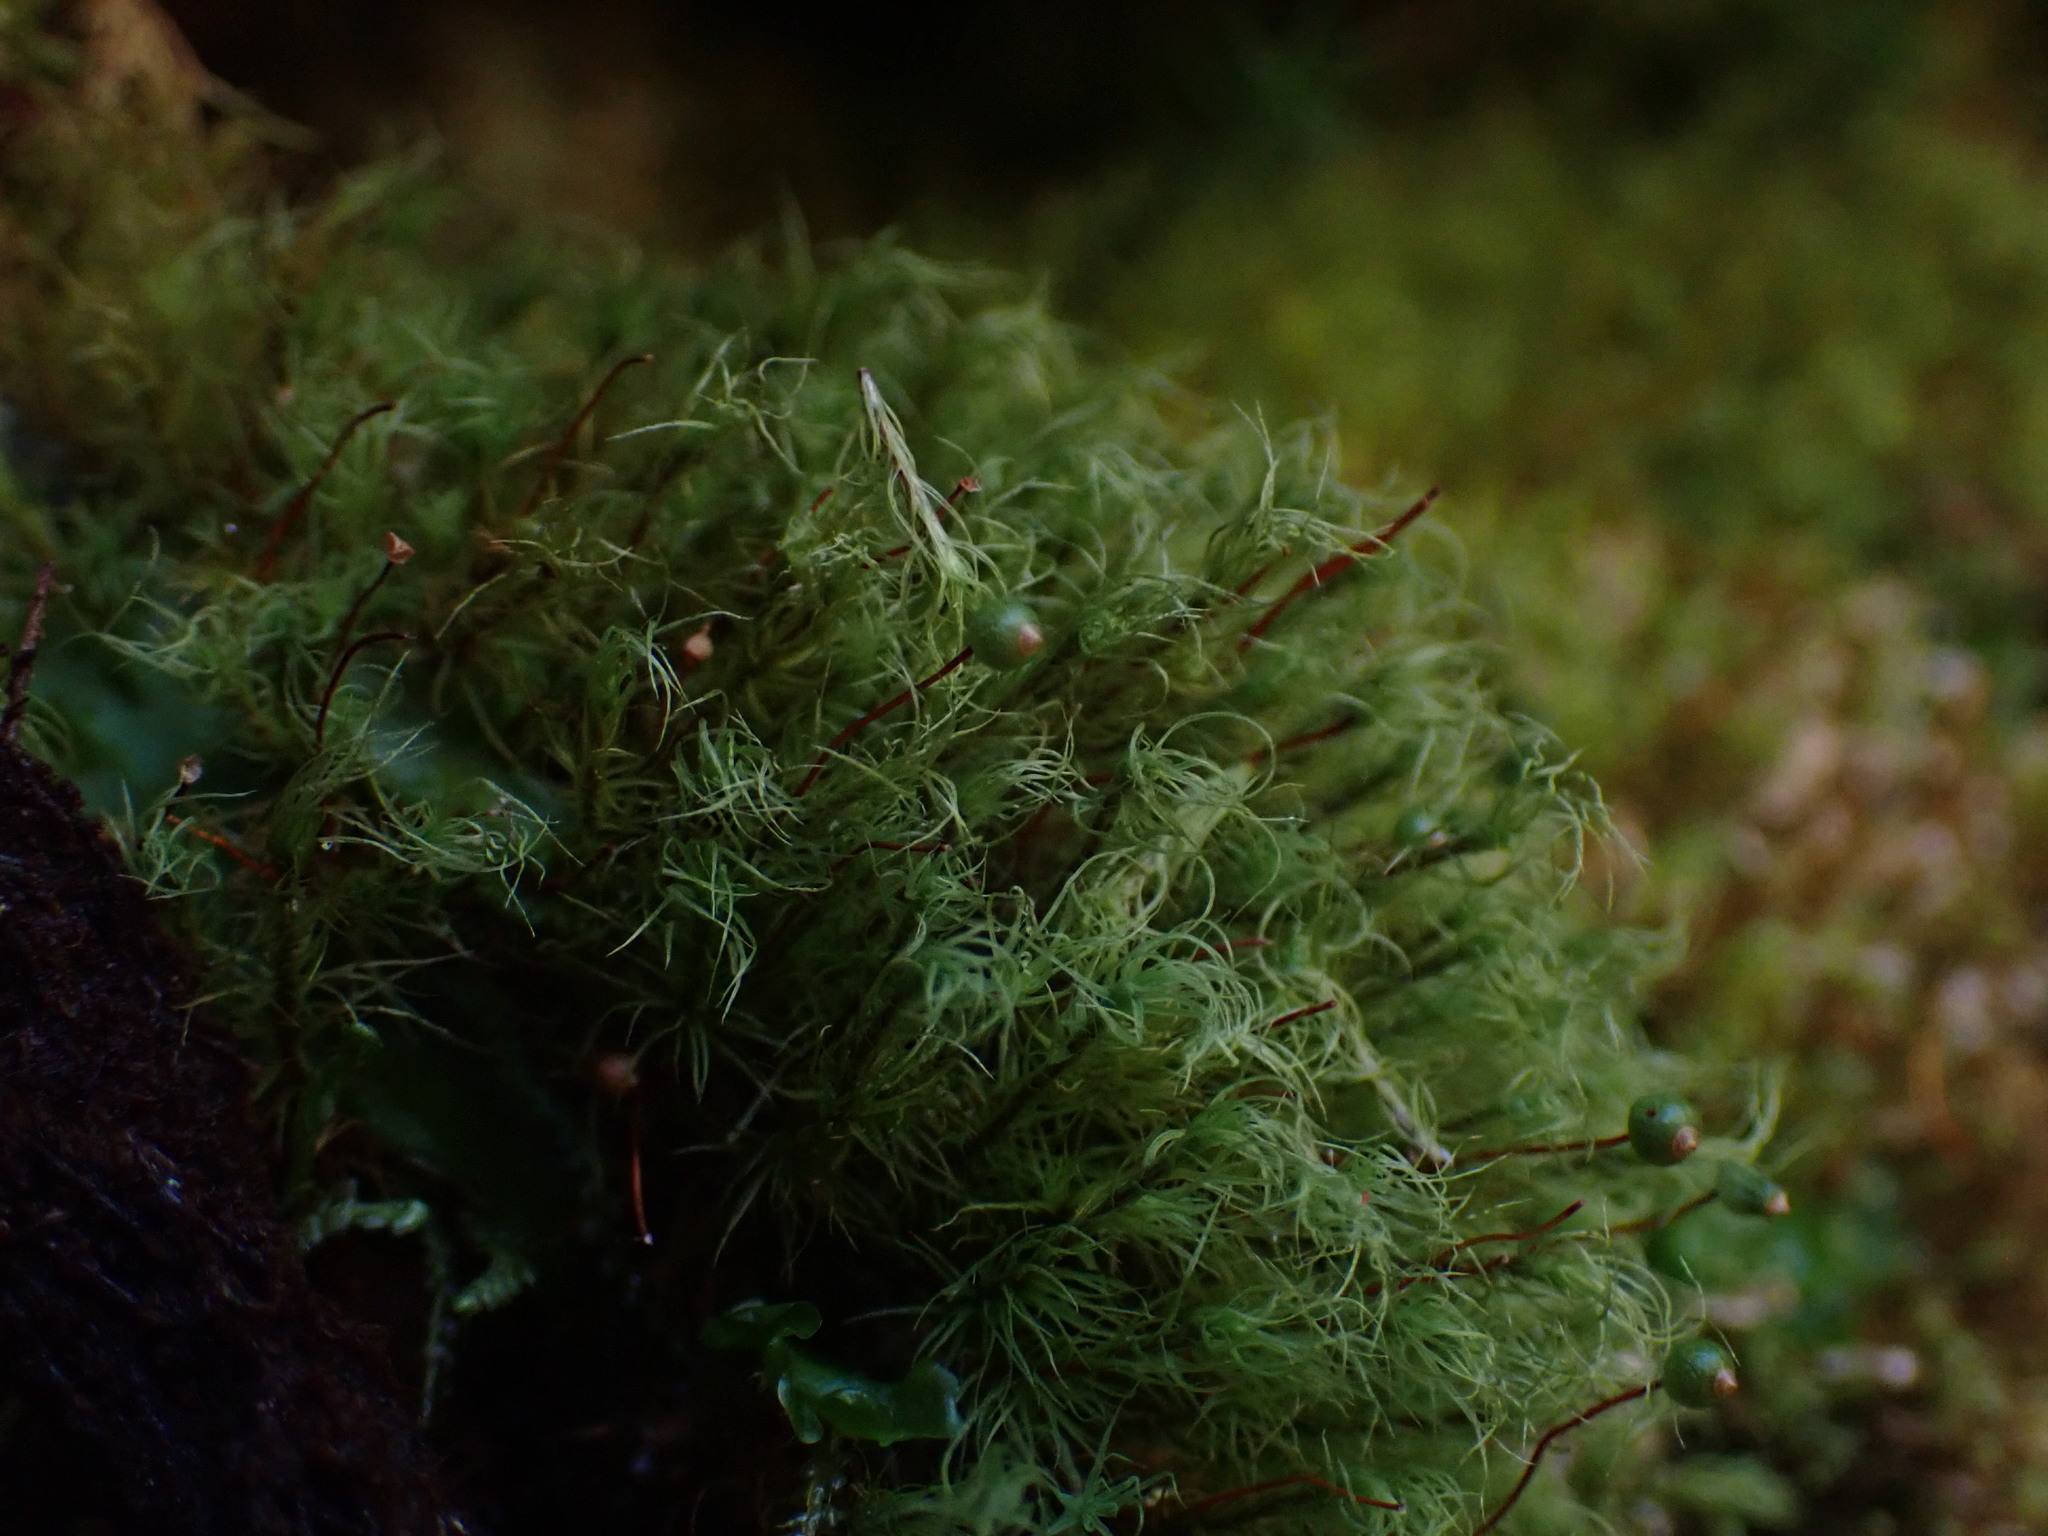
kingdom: Plantae
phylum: Bryophyta
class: Bryopsida
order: Bartramiales
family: Bartramiaceae
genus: Bartramia
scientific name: Bartramia ithyphylla
